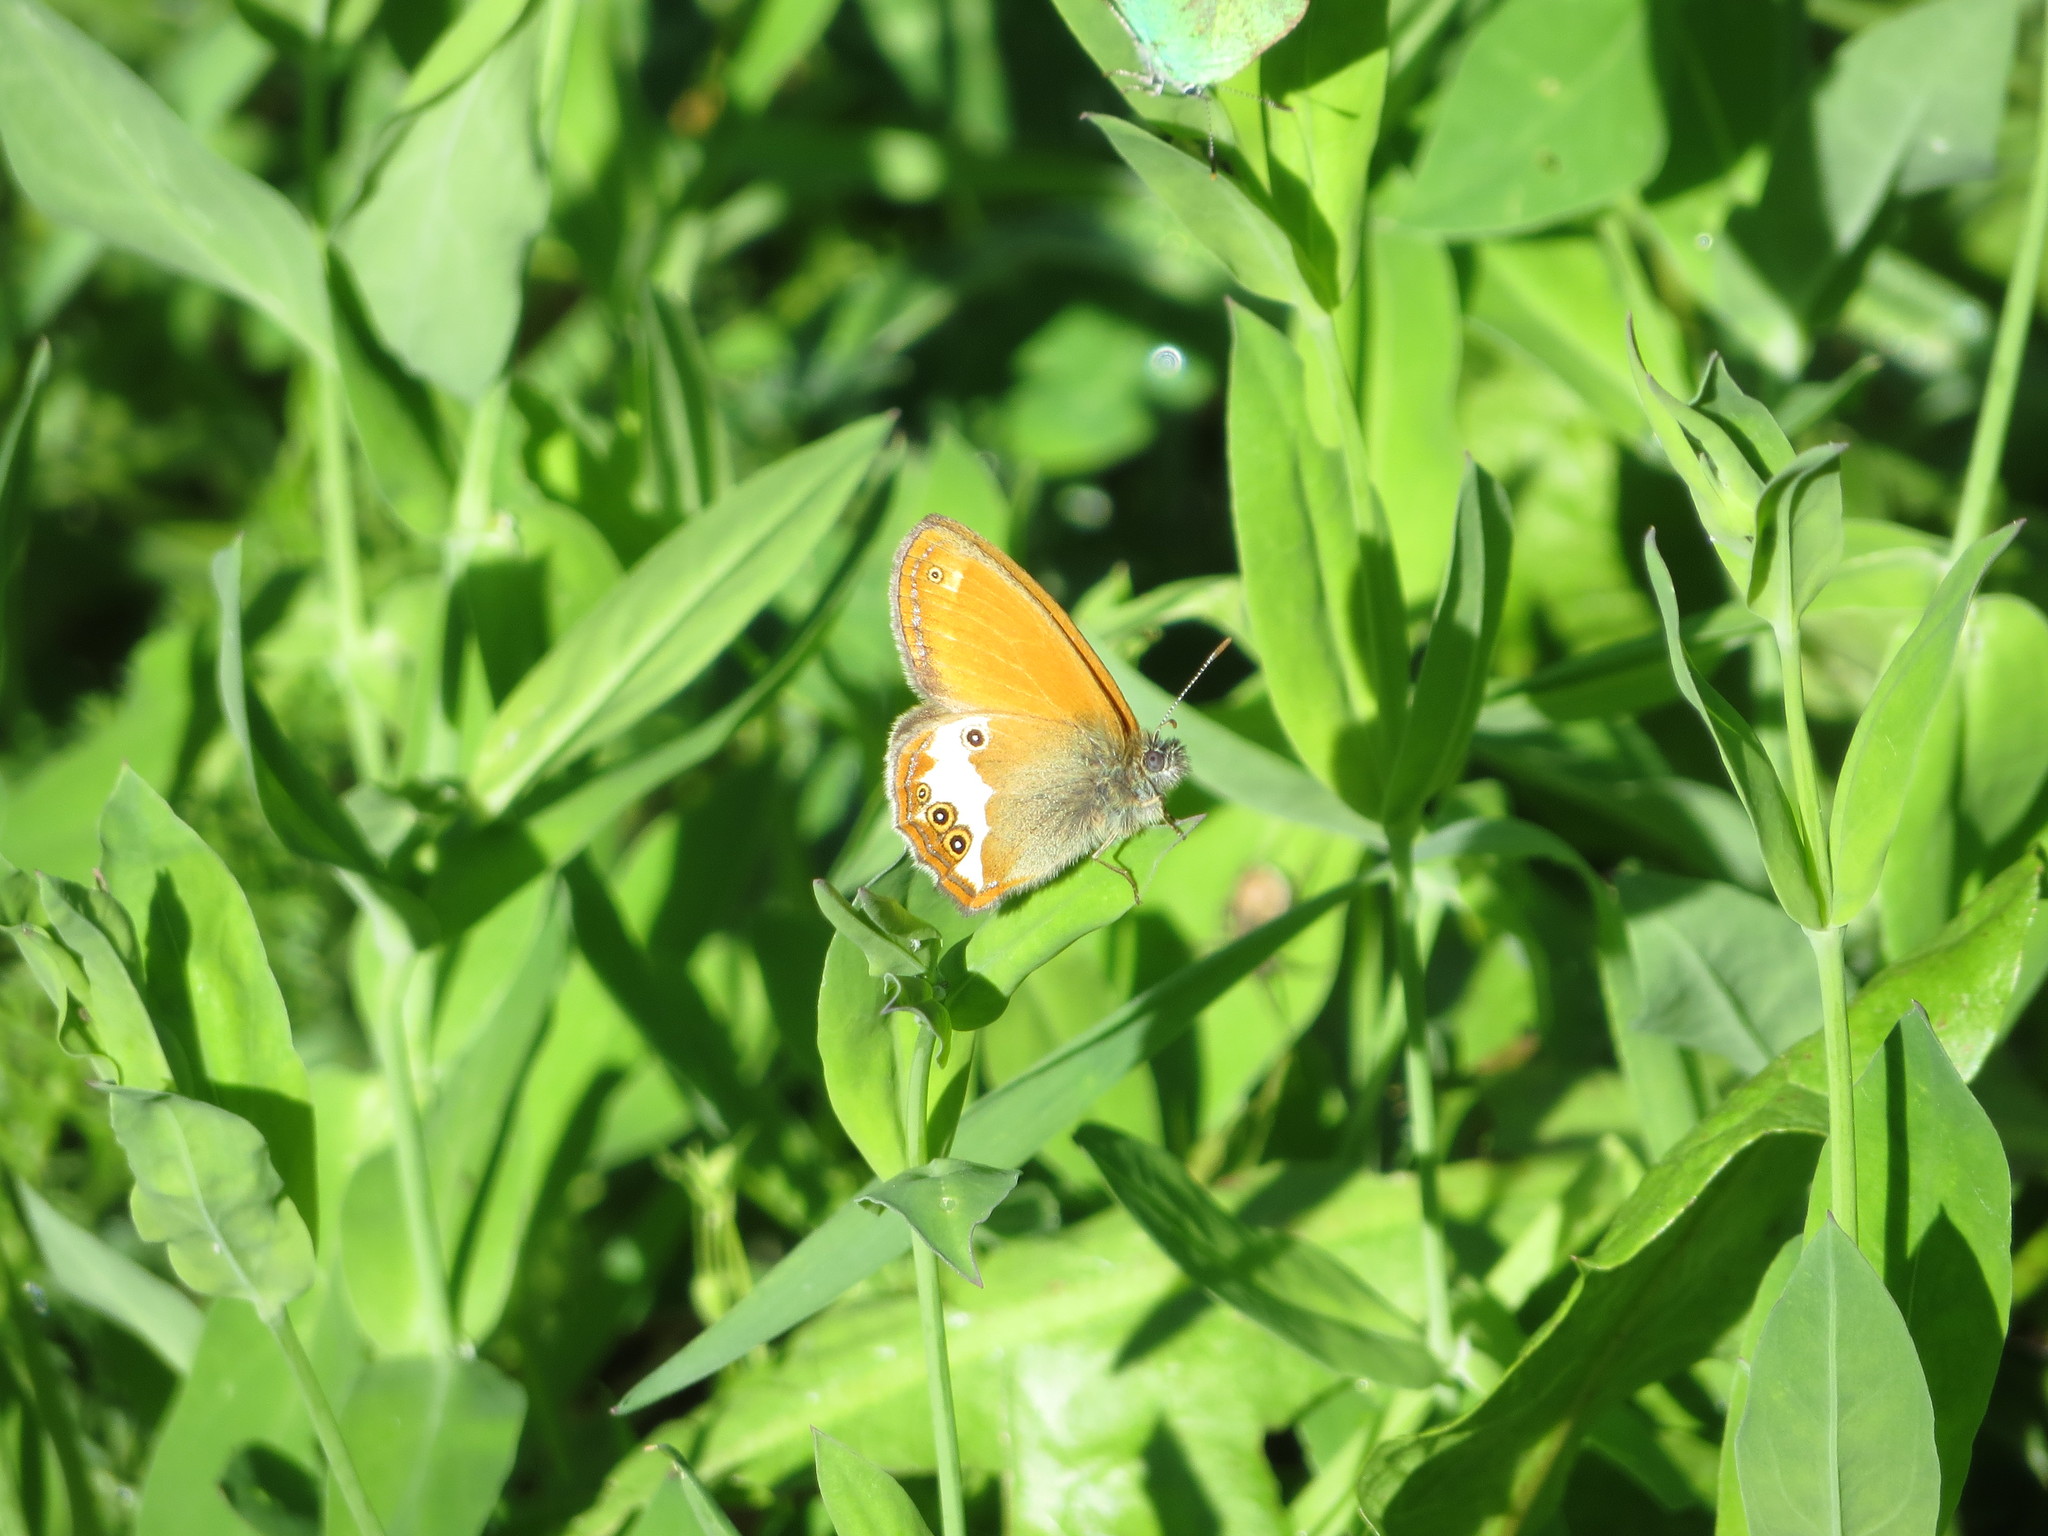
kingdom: Animalia
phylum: Arthropoda
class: Insecta
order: Lepidoptera
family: Nymphalidae
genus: Coenonympha
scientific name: Coenonympha arcania
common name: Pearly heath
